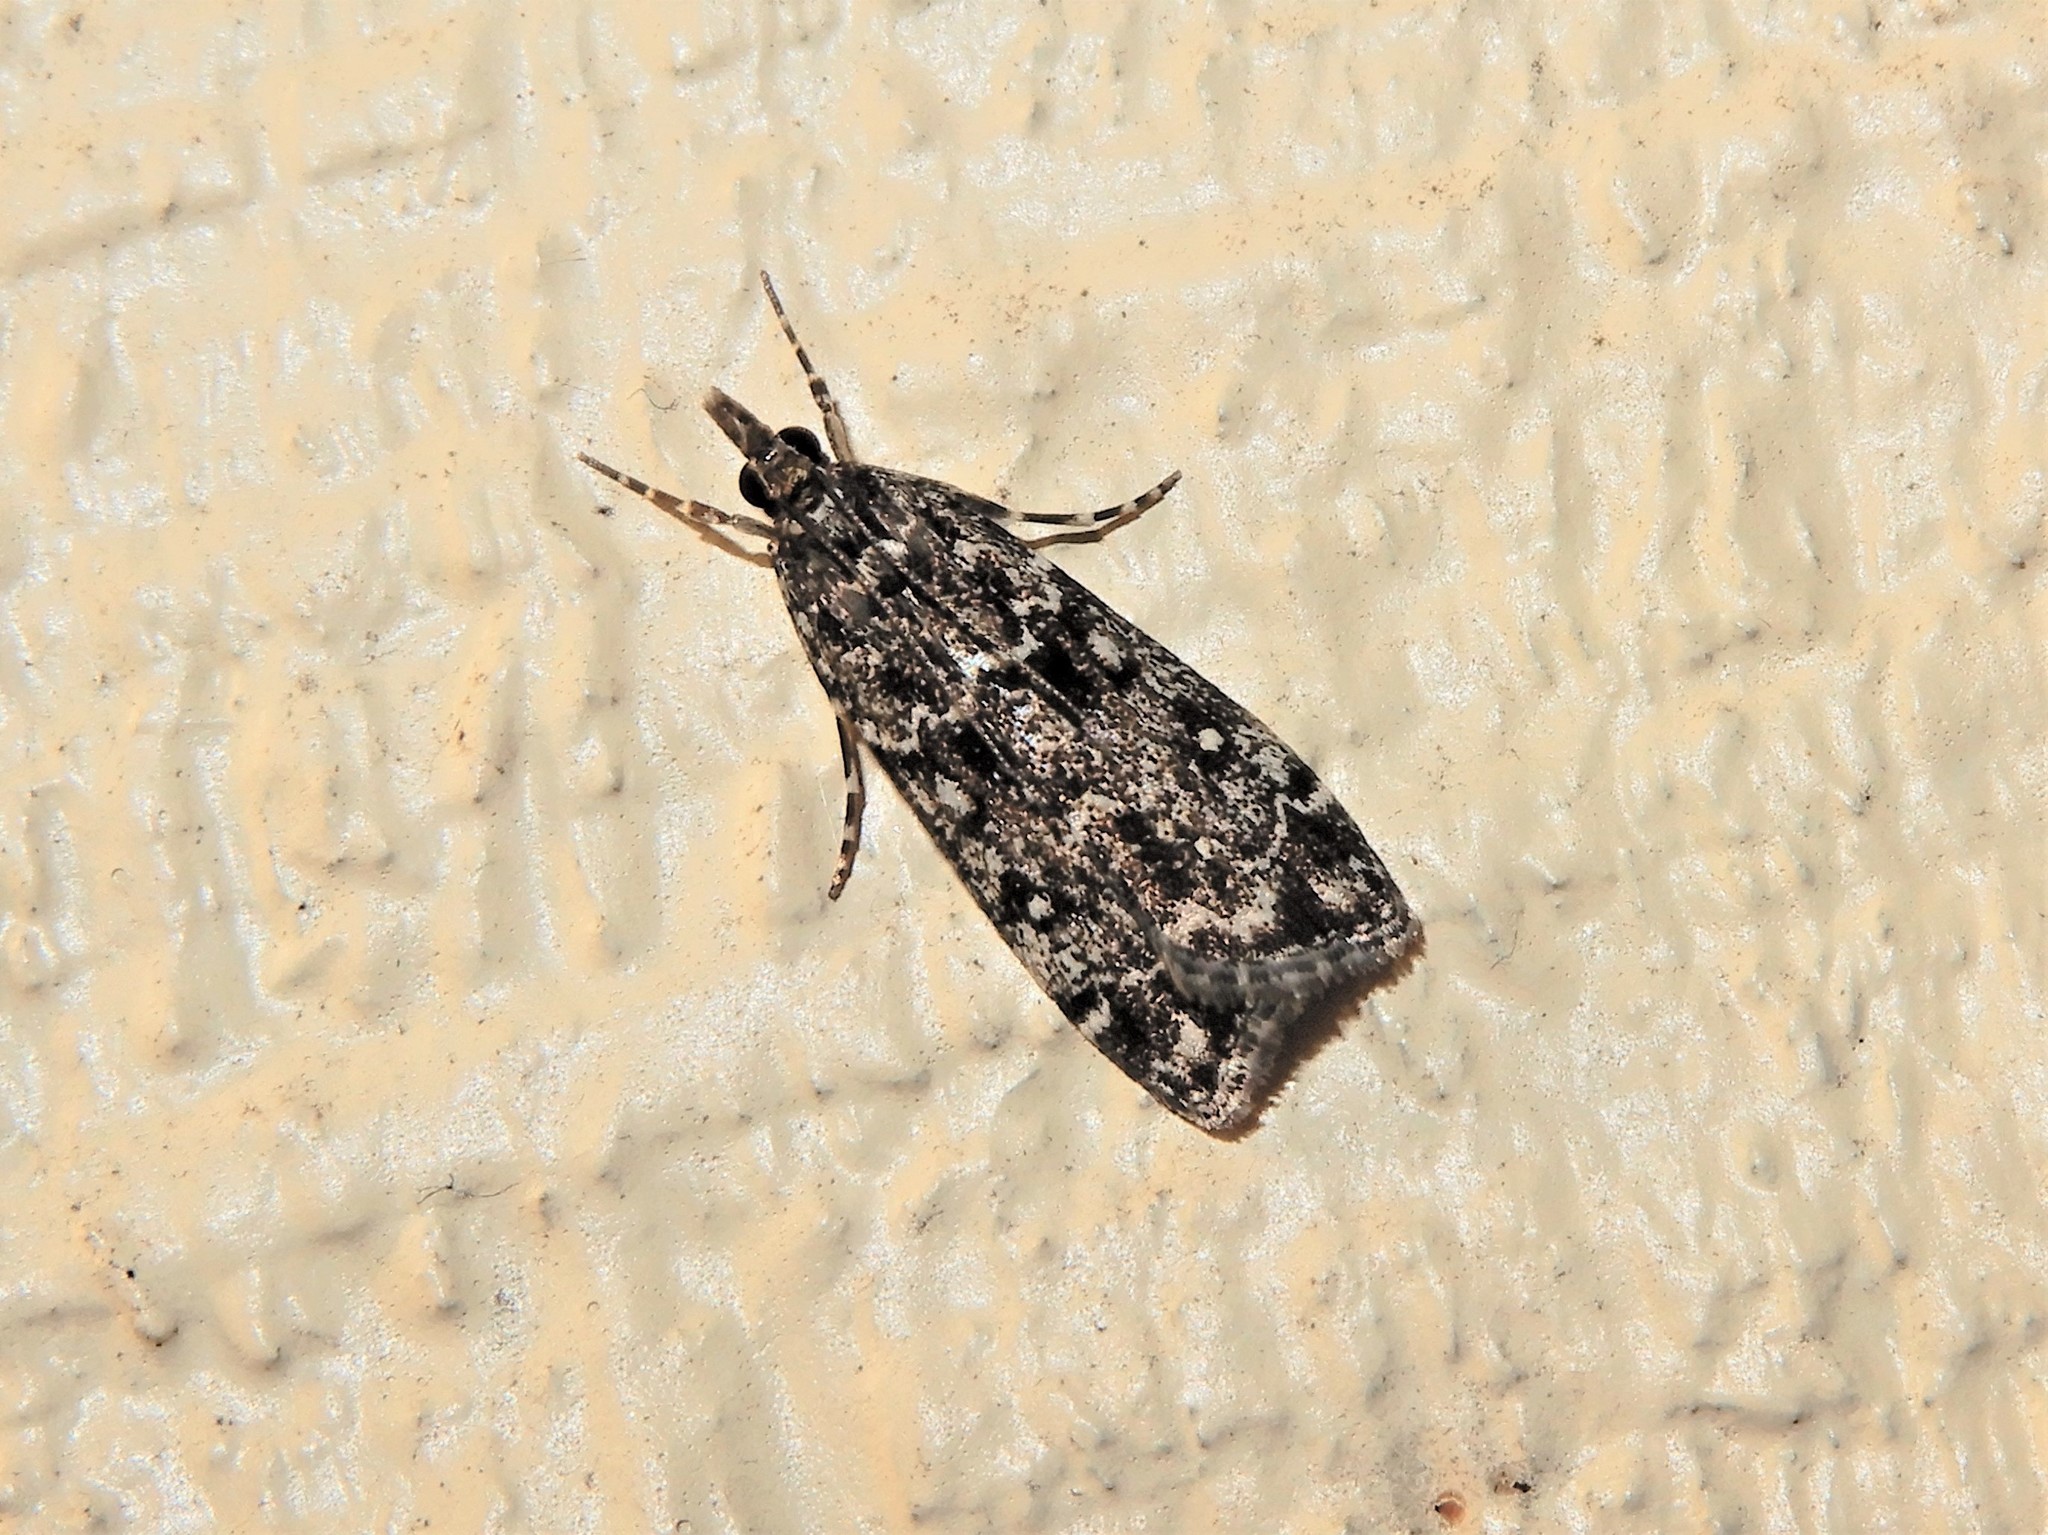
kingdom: Animalia
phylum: Arthropoda
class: Insecta
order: Lepidoptera
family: Crambidae
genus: Eudonia
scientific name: Eudonia philerga
